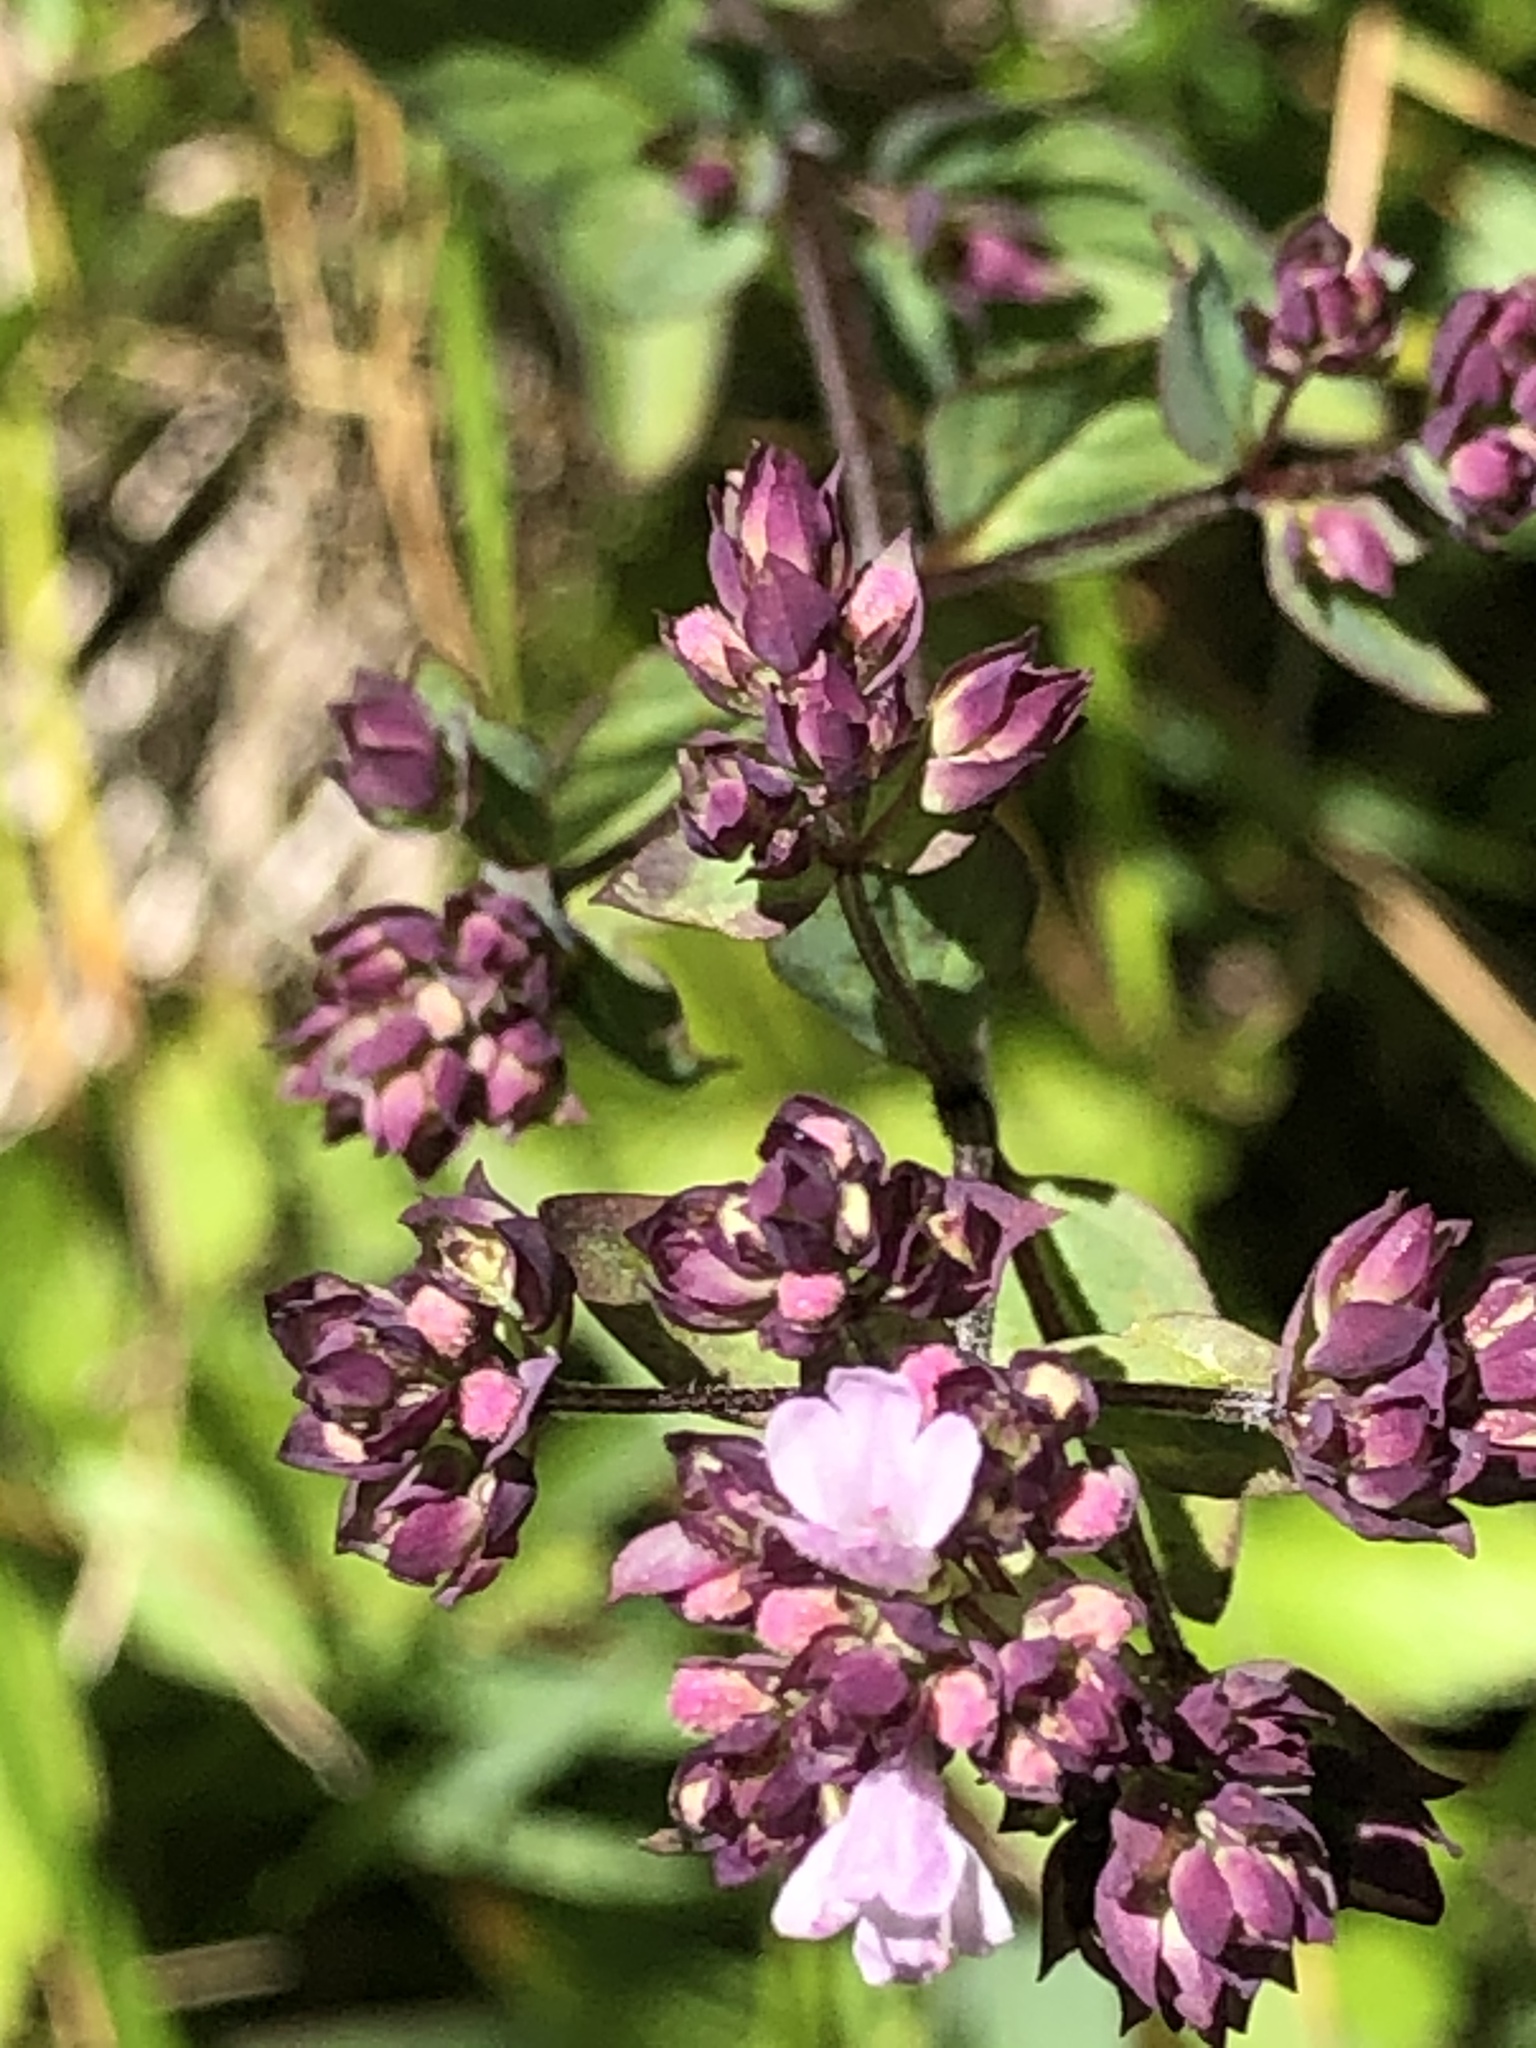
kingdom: Plantae
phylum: Tracheophyta
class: Magnoliopsida
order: Lamiales
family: Lamiaceae
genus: Origanum
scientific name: Origanum vulgare
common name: Wild marjoram
